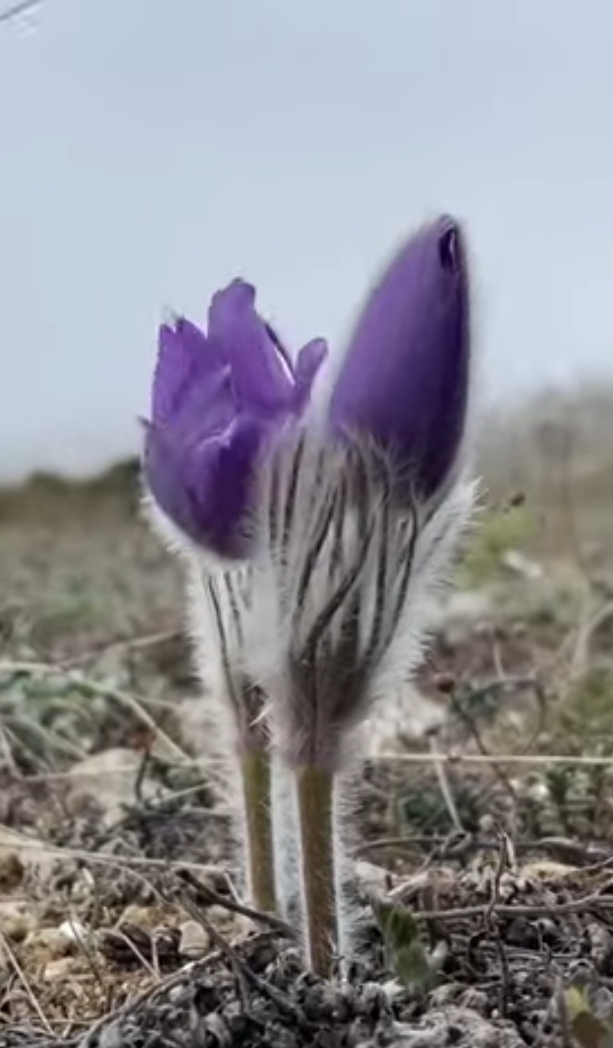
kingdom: Plantae
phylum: Tracheophyta
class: Magnoliopsida
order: Ranunculales
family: Ranunculaceae
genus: Pulsatilla
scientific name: Pulsatilla halleri
